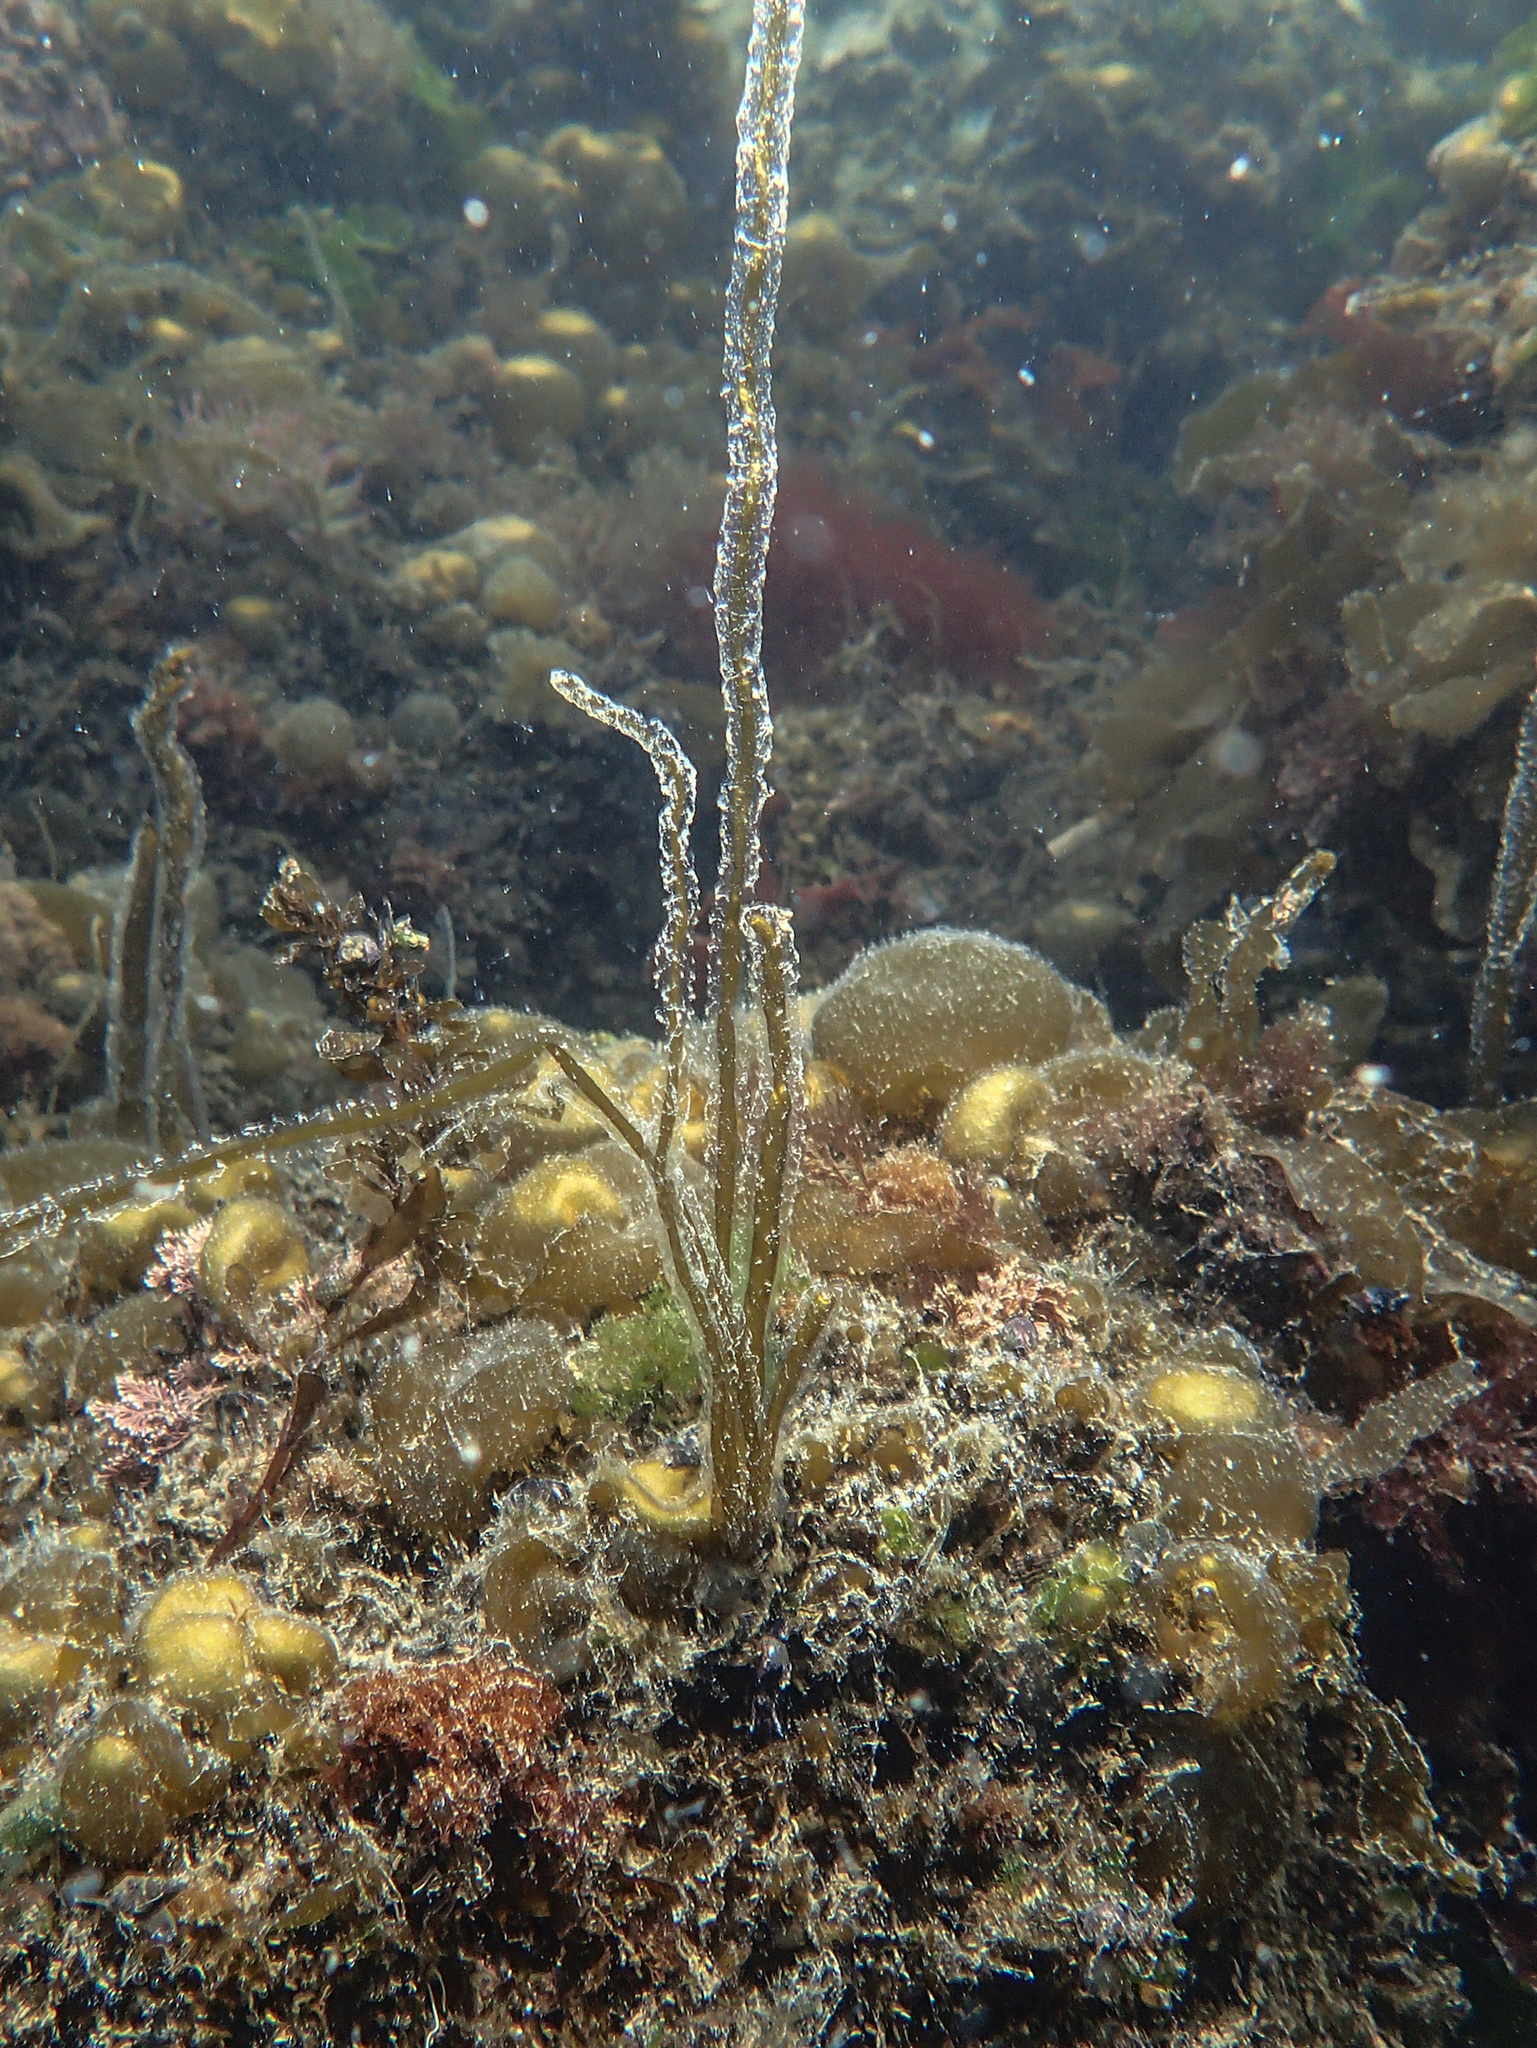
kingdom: Chromista
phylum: Ochrophyta
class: Phaeophyceae
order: Scytosiphonales
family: Scytosiphonaceae
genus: Scytosiphon
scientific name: Scytosiphon lomentaria
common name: Beanweed
